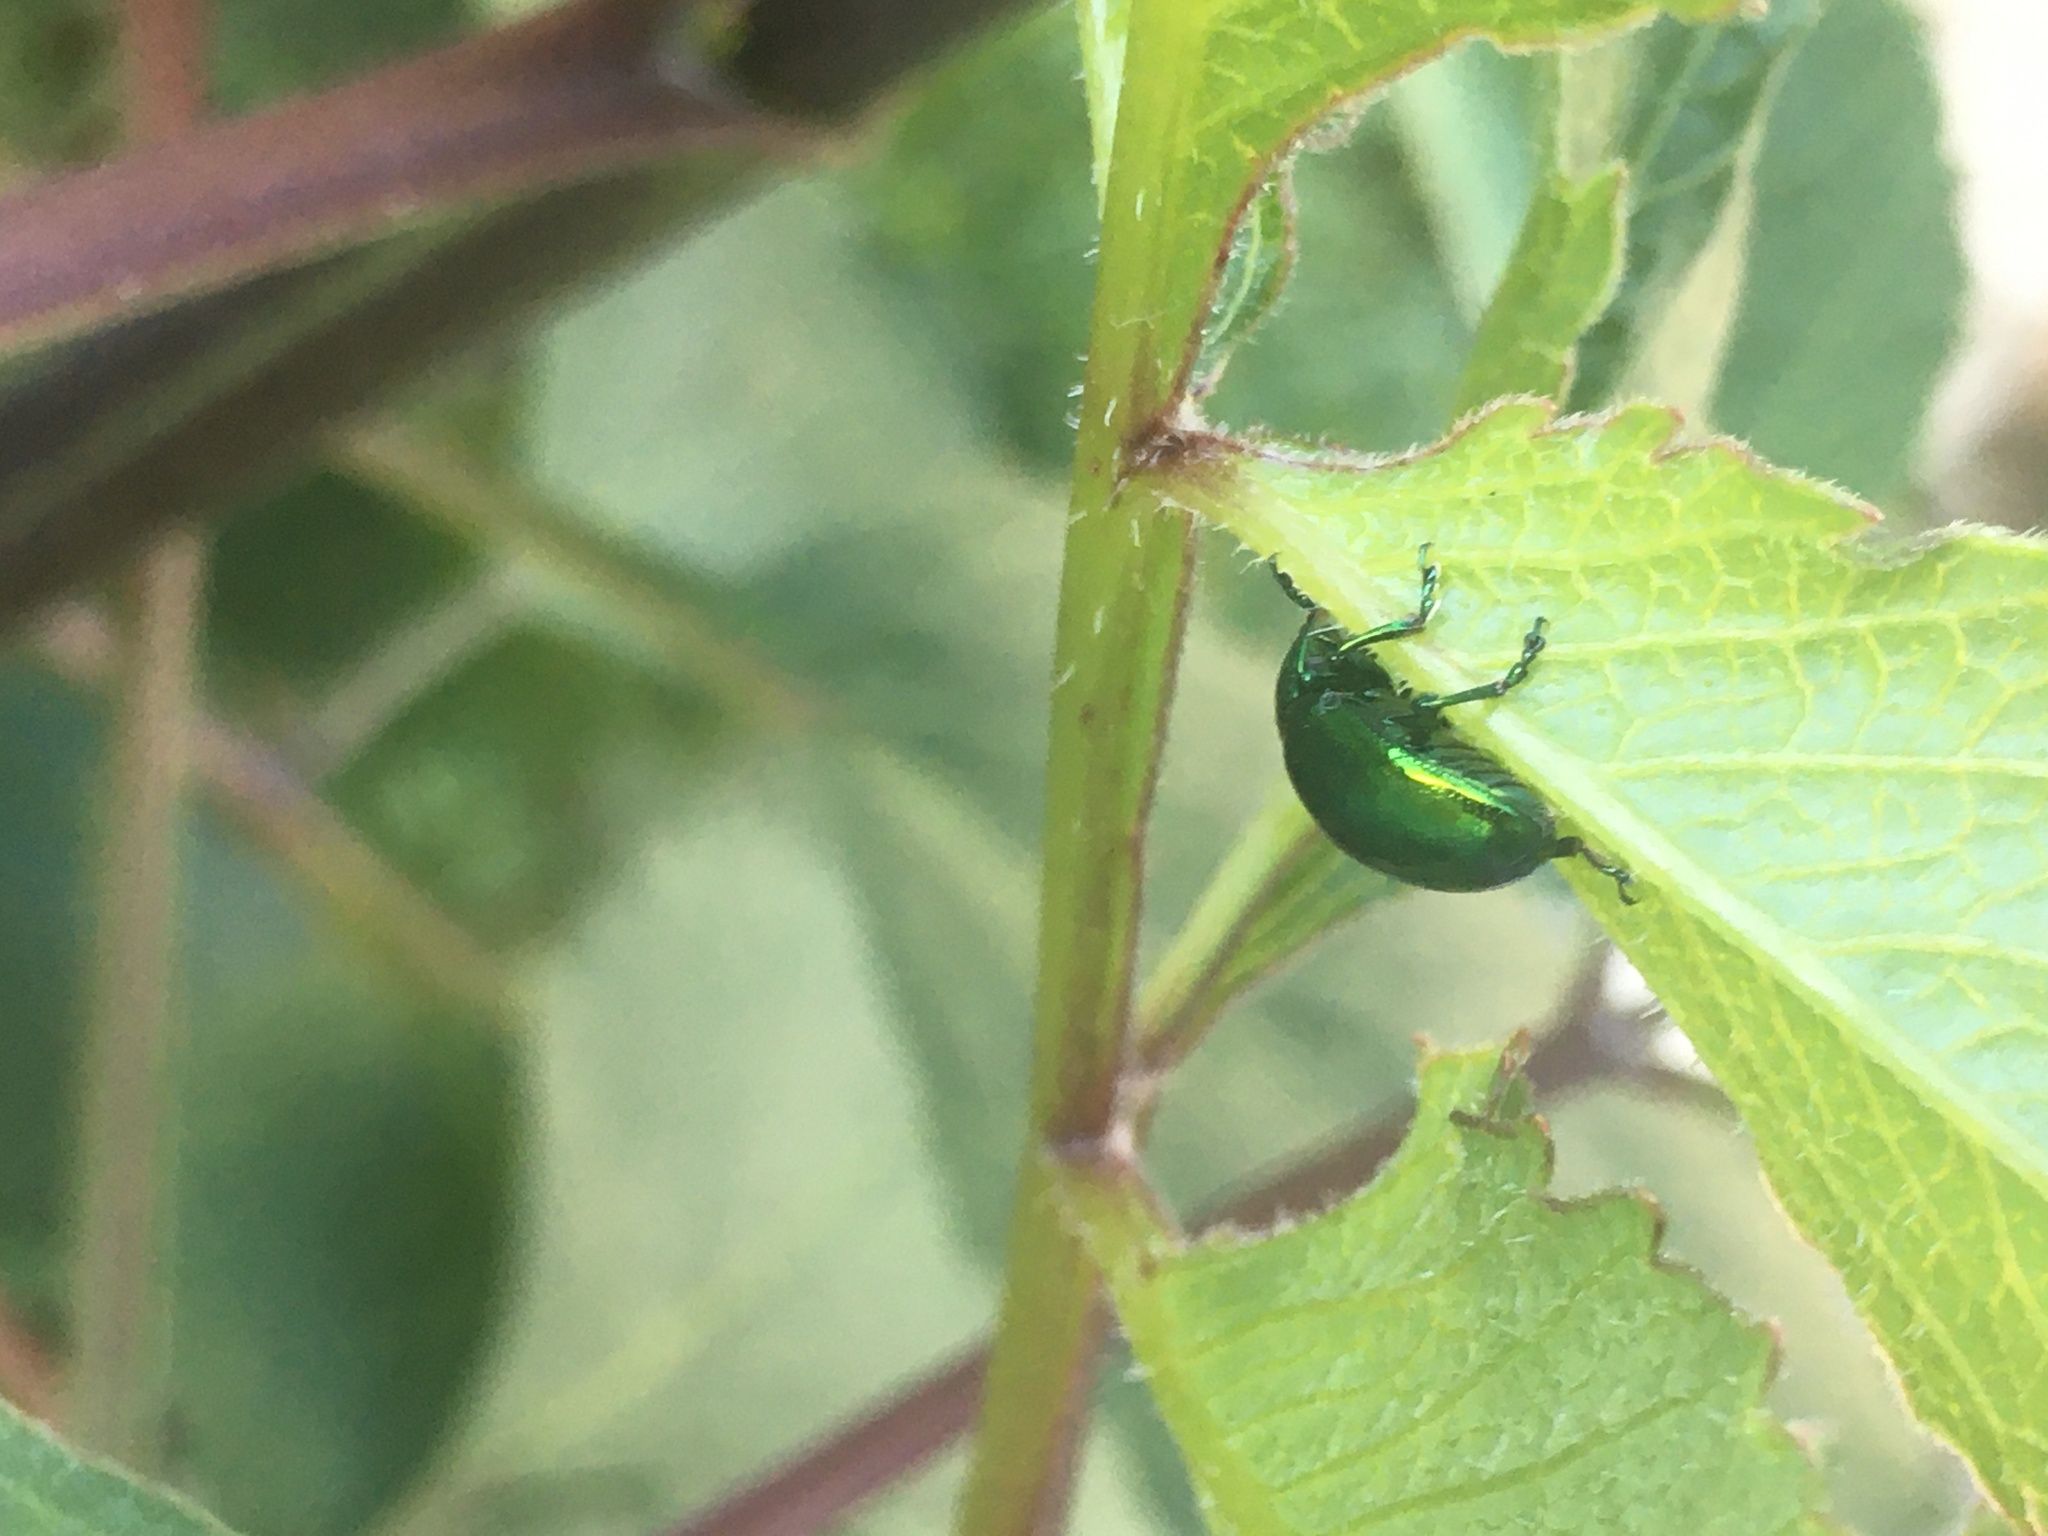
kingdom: Animalia
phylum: Arthropoda
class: Insecta
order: Coleoptera
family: Chrysomelidae
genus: Chrysolina
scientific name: Chrysolina herbacea
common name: Mint leaf beatle
